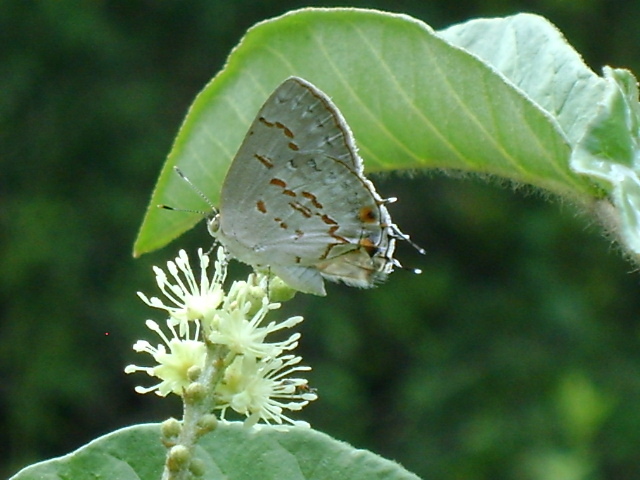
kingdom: Animalia
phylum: Arthropoda
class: Insecta
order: Lepidoptera
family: Lycaenidae
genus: Ministrymon
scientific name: Ministrymon clytie
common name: Clytie ministreak
